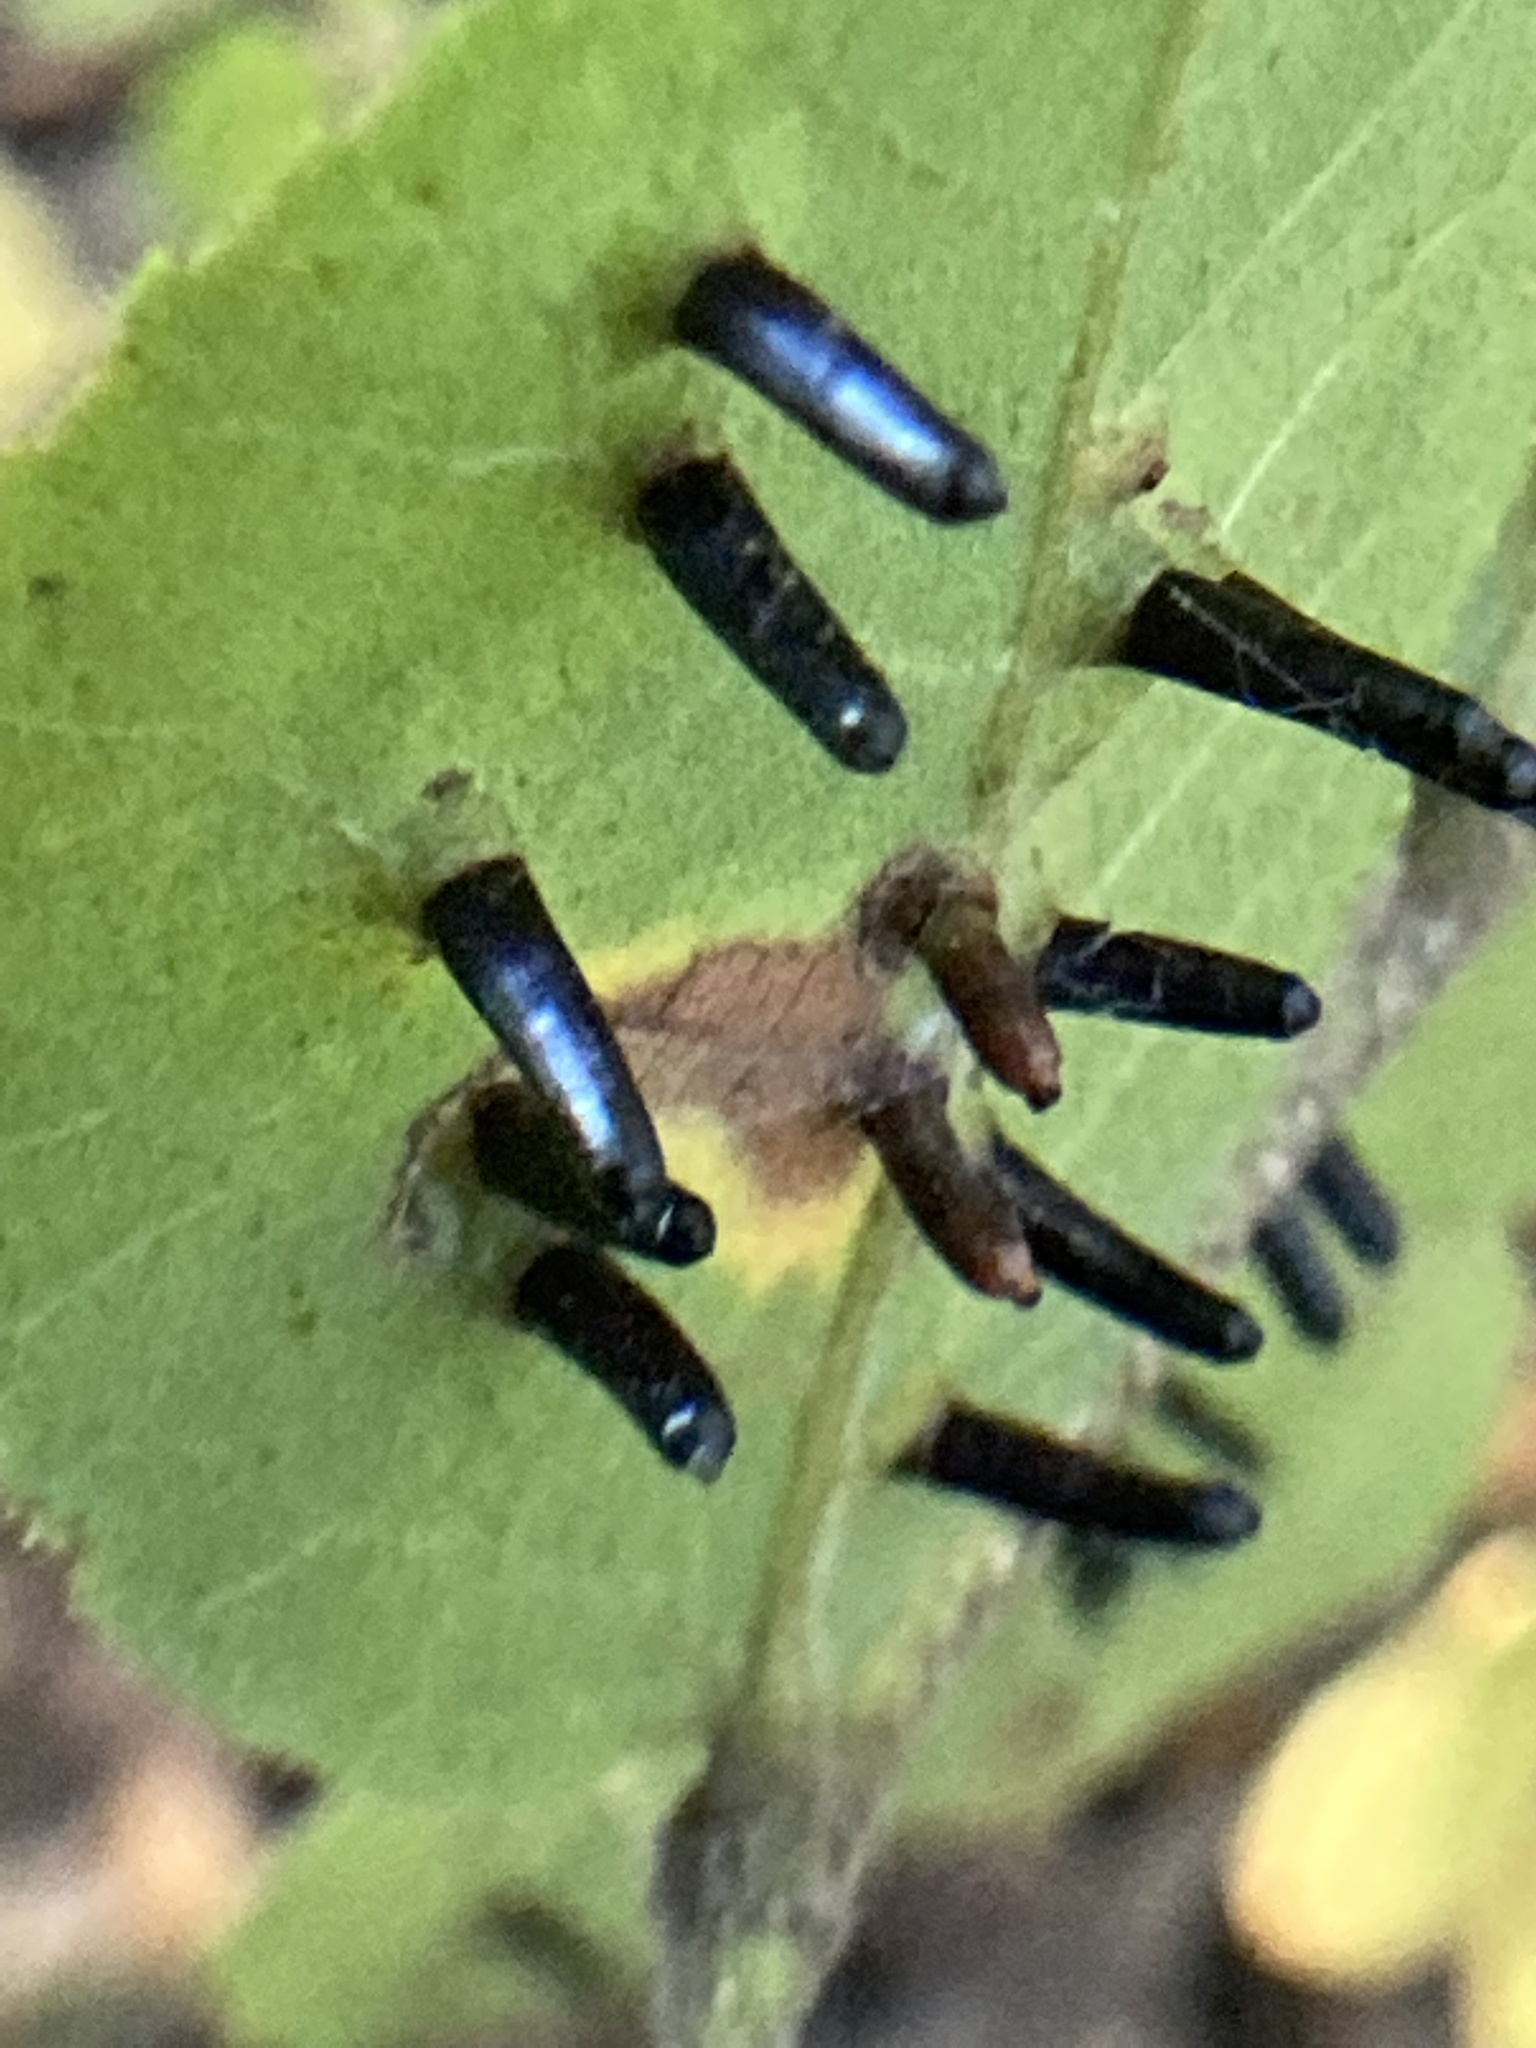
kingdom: Animalia
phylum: Arthropoda
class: Insecta
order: Diptera
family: Cecidomyiidae
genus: Caryomyia
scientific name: Caryomyia tubicola
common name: Hickory bullet gall midge
